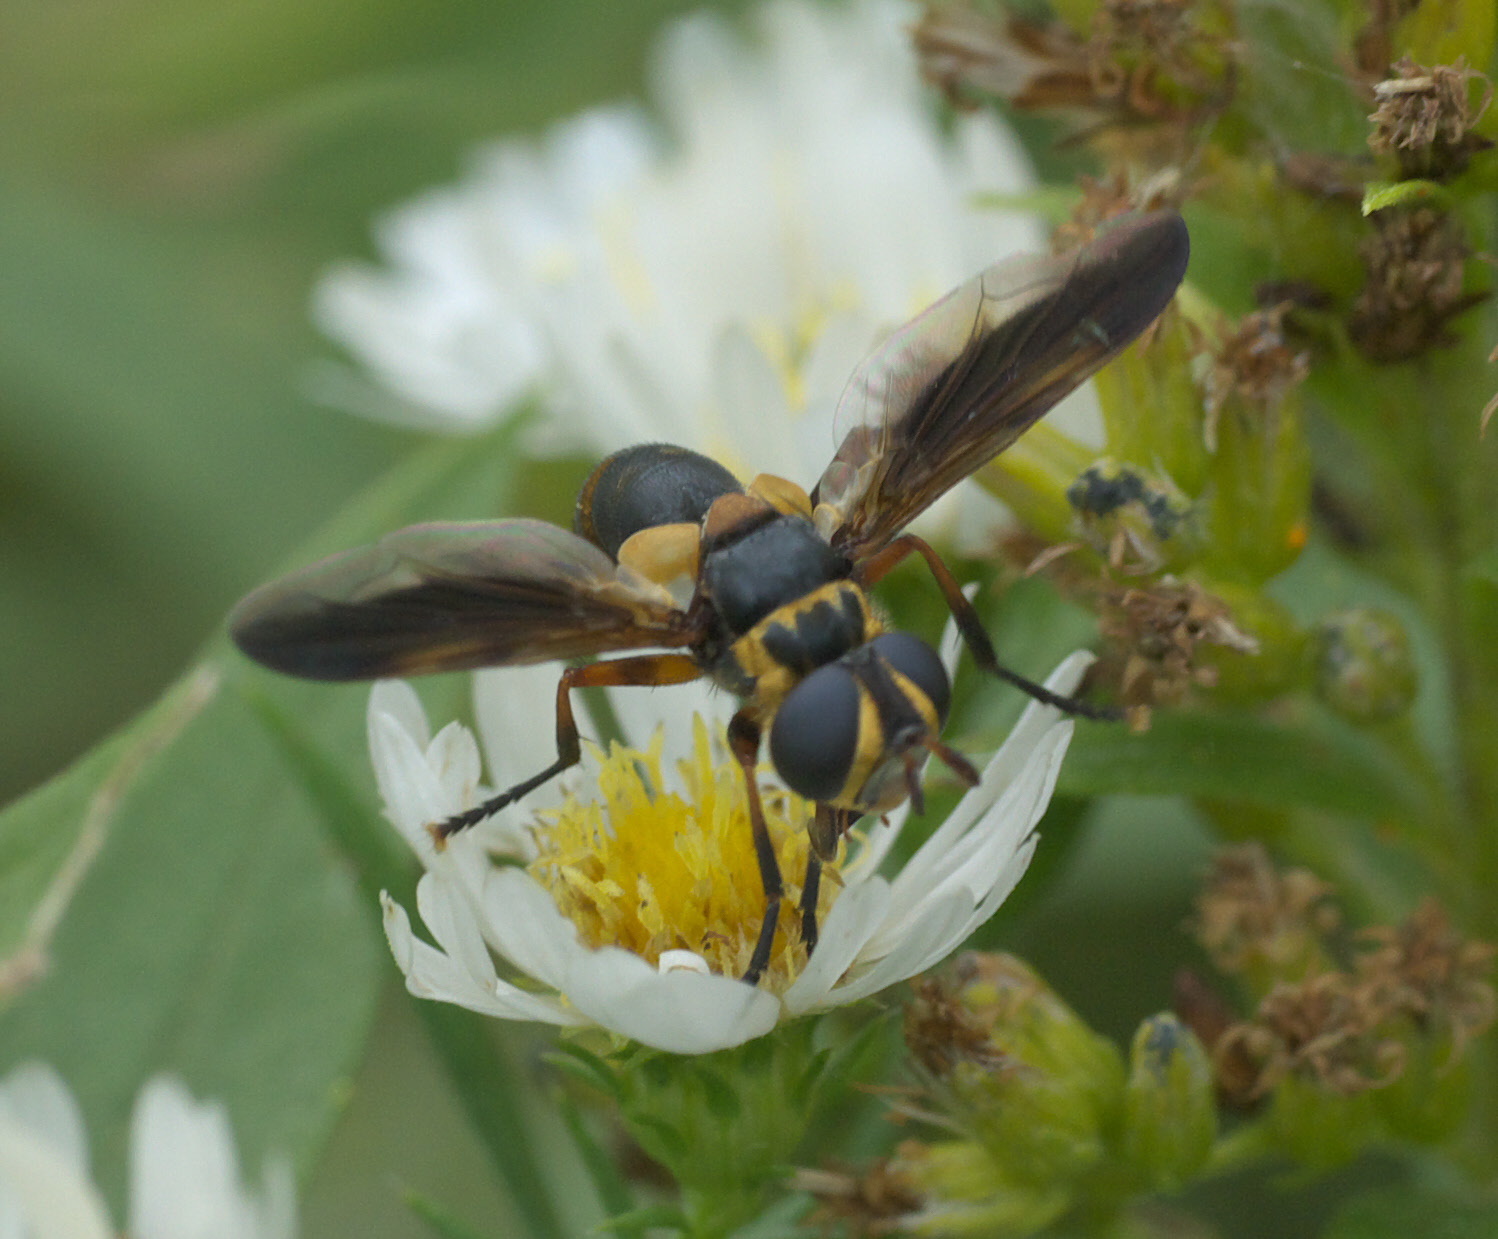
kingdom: Animalia
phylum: Arthropoda
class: Insecta
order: Diptera
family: Tachinidae
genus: Trichopoda
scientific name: Trichopoda plumipes
